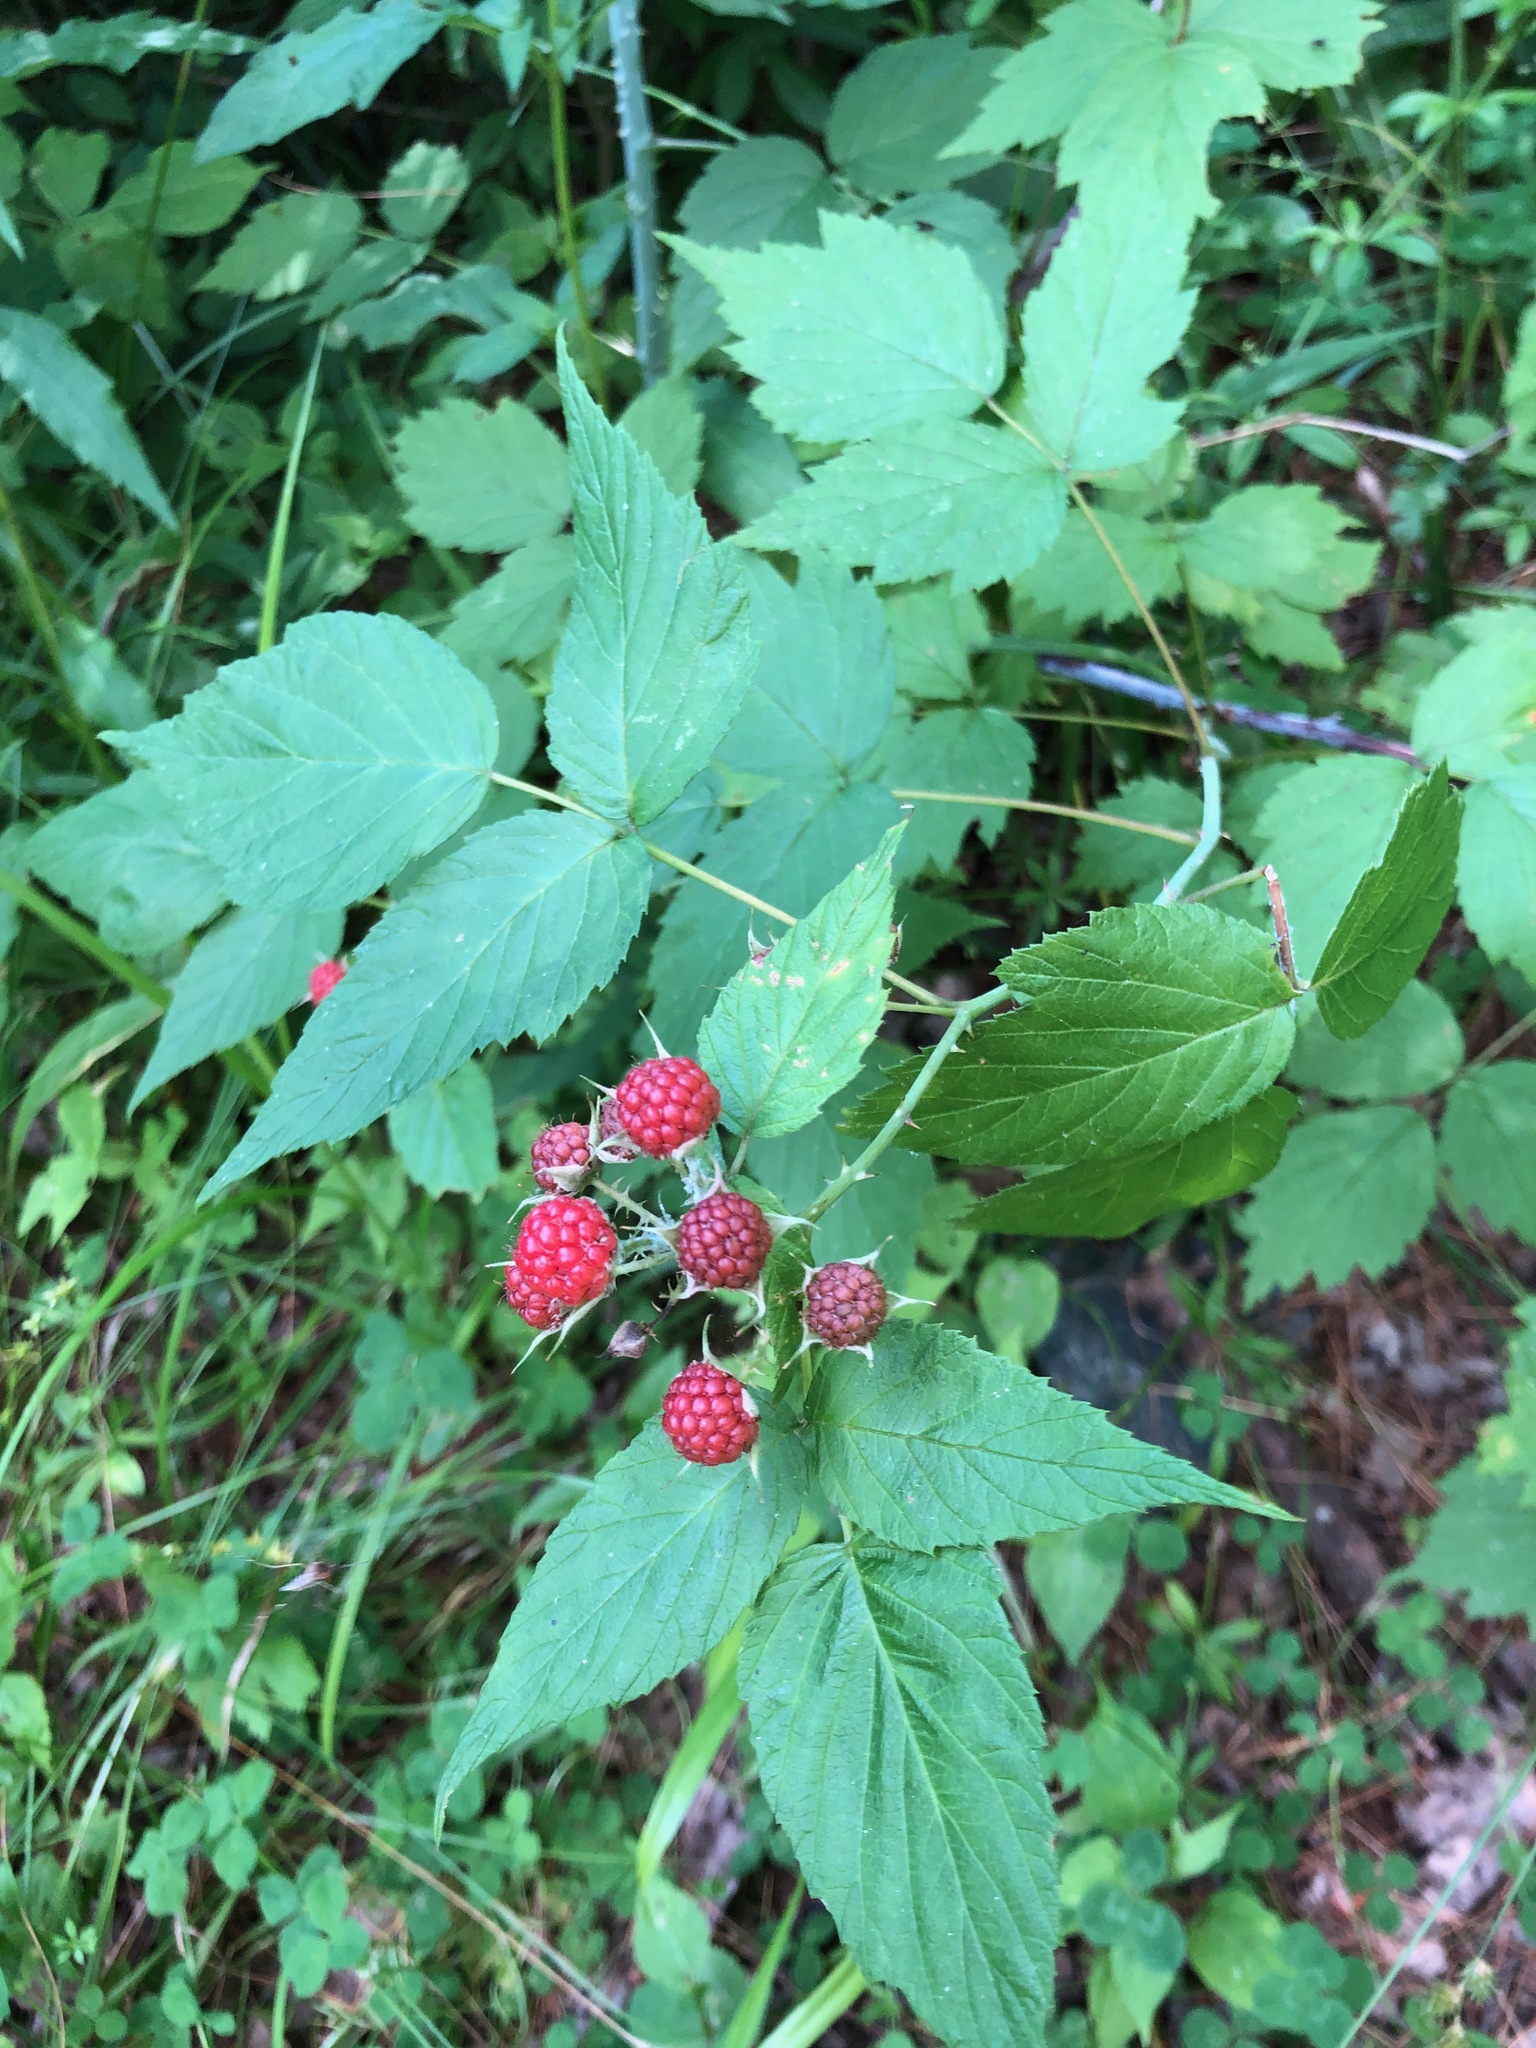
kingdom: Plantae
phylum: Tracheophyta
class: Magnoliopsida
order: Rosales
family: Rosaceae
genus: Rubus
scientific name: Rubus occidentalis
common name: Black raspberry
